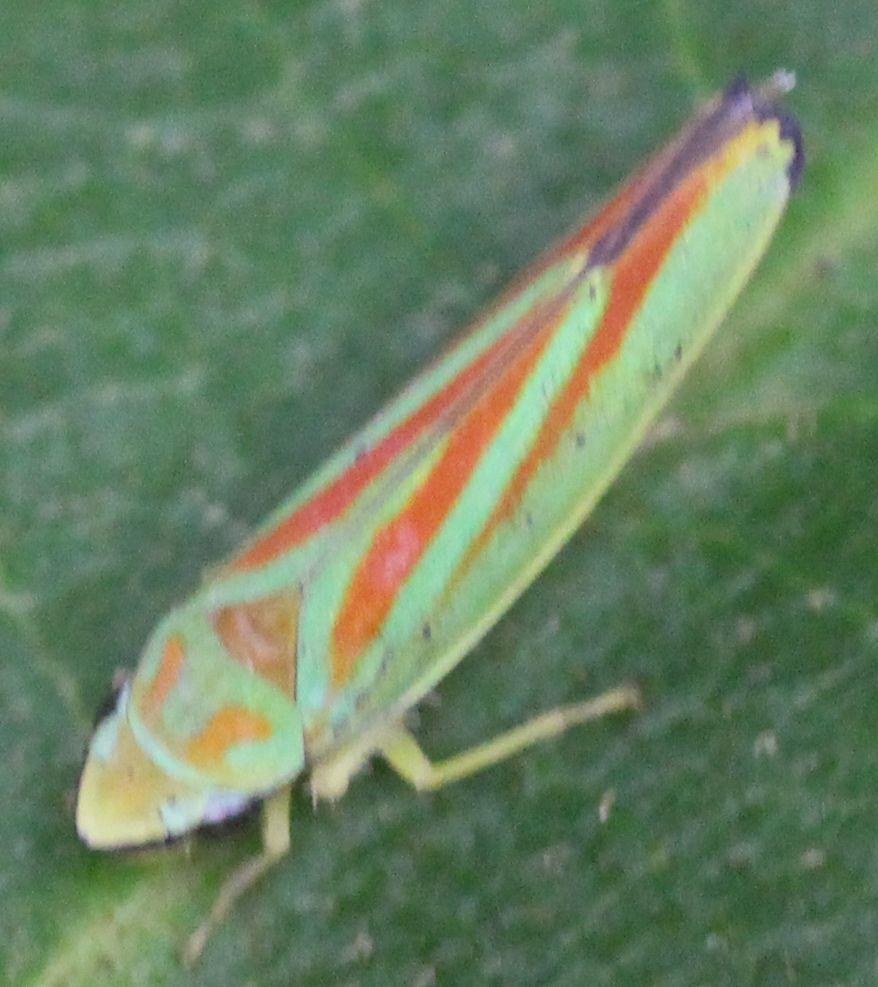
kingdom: Animalia
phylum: Arthropoda
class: Insecta
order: Hemiptera
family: Cicadellidae
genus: Graphocephala
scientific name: Graphocephala fennahi
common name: Rhododendron leafhopper
